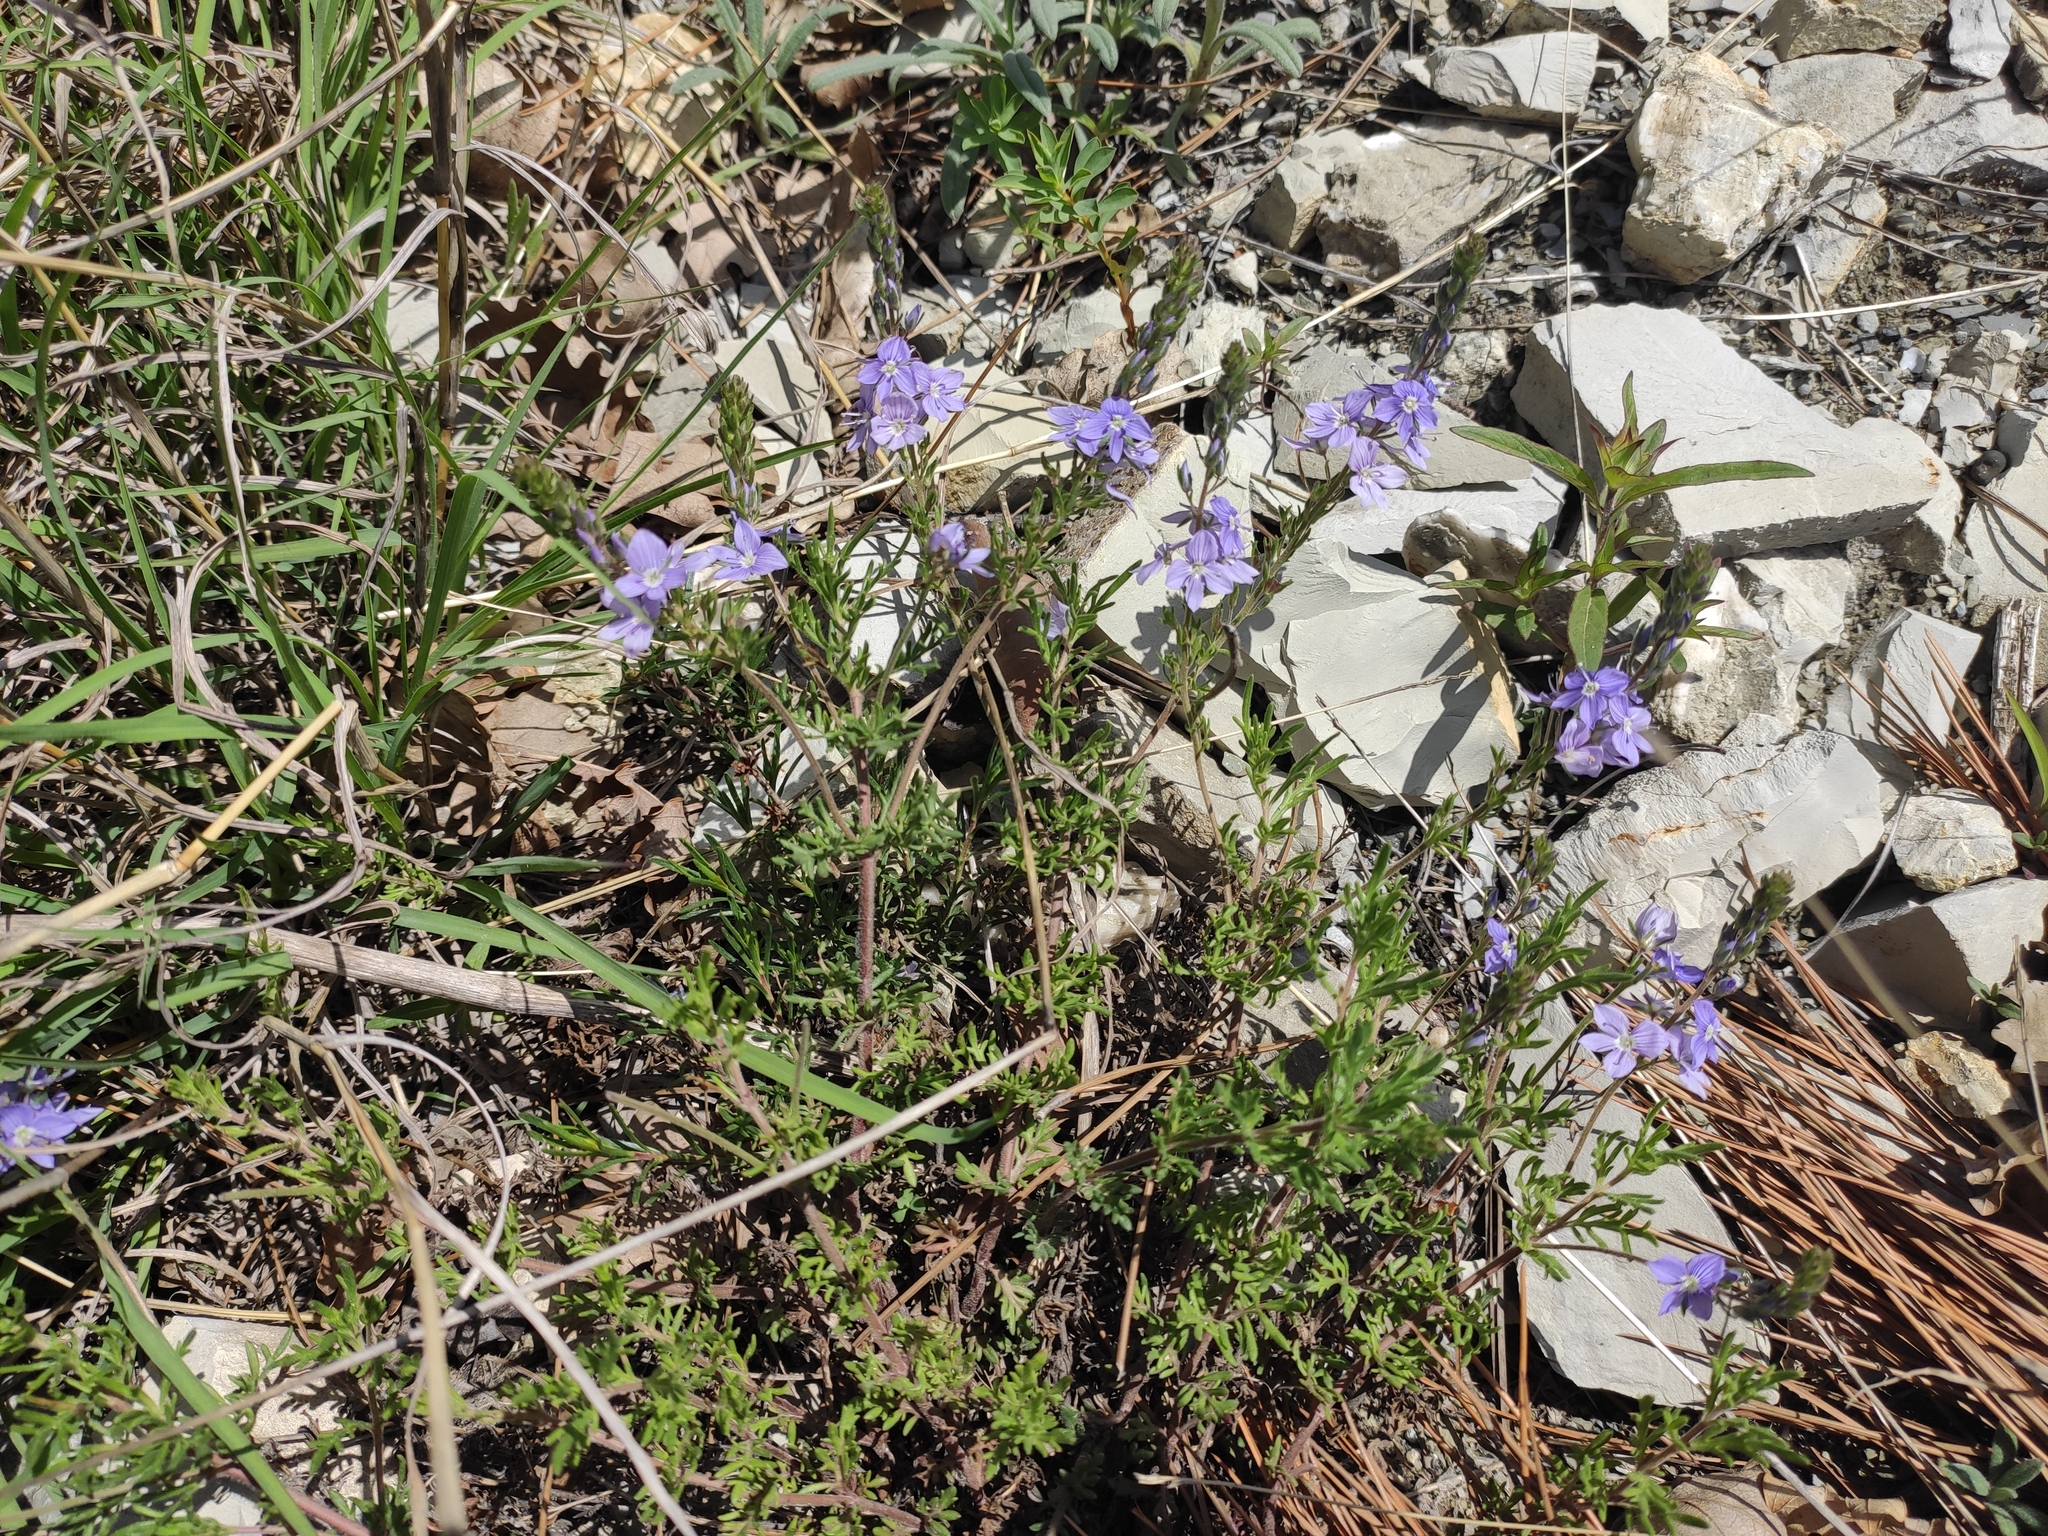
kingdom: Plantae
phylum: Tracheophyta
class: Magnoliopsida
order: Lamiales
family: Plantaginaceae
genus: Veronica
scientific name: Veronica capsellicarpa
